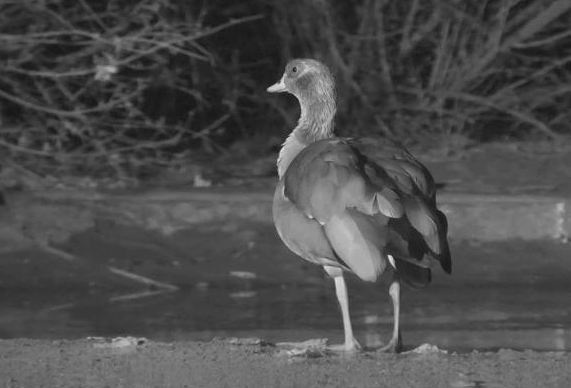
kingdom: Animalia
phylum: Chordata
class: Aves
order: Anseriformes
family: Anatidae
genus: Alopochen
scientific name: Alopochen aegyptiaca
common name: Egyptian goose
